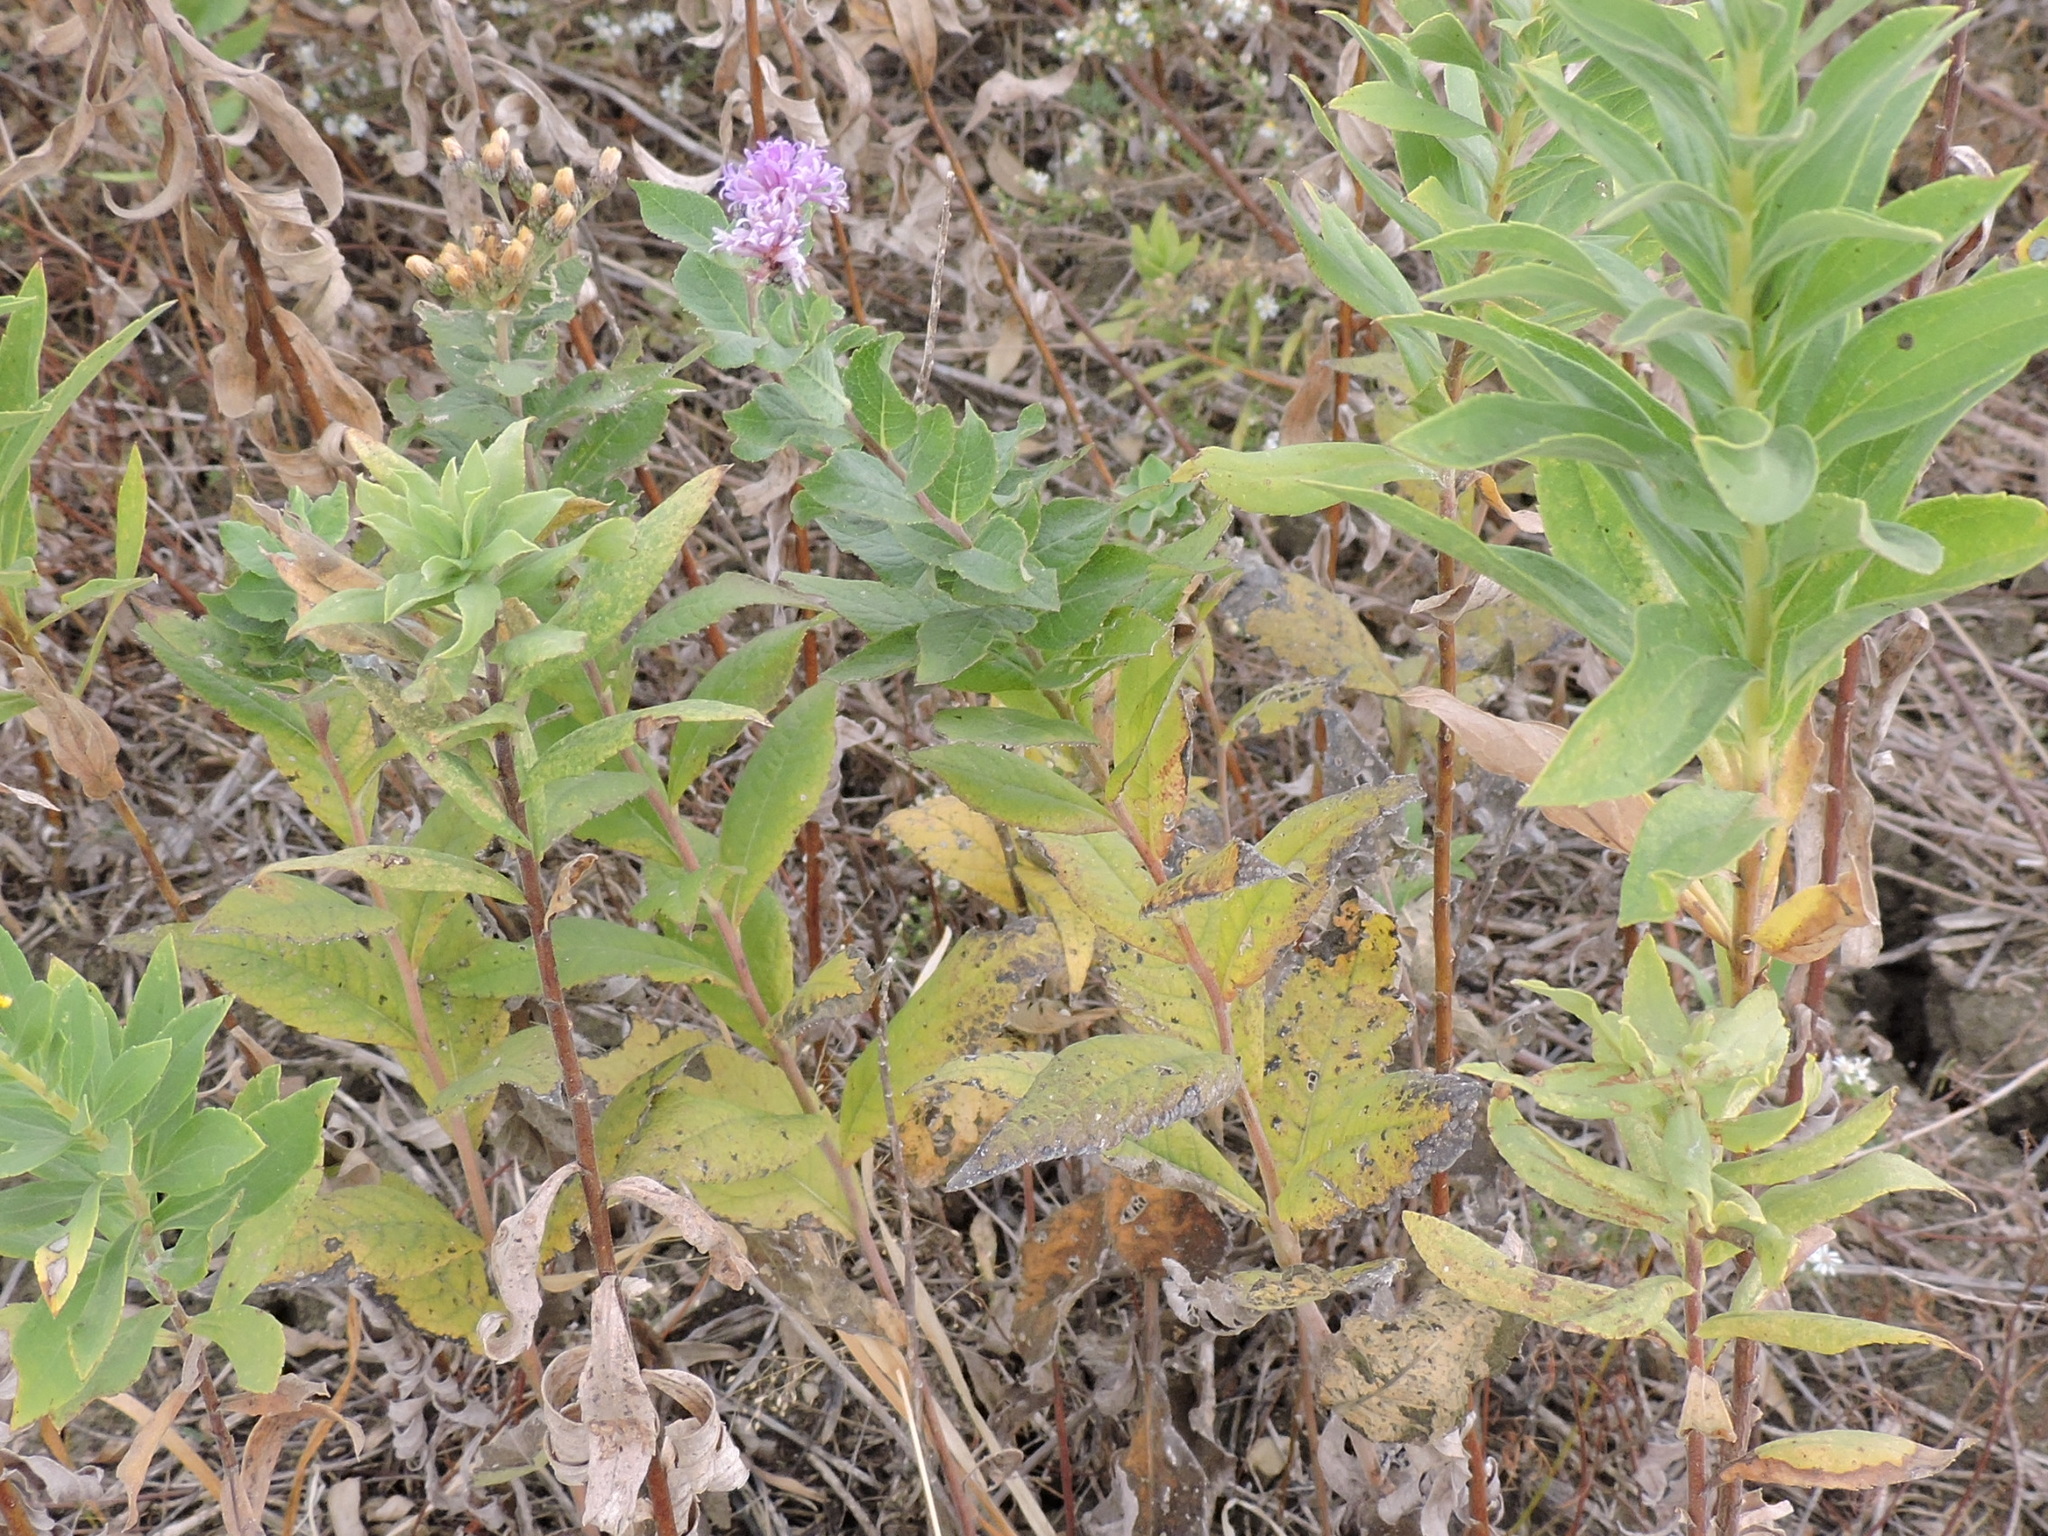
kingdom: Plantae
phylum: Tracheophyta
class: Magnoliopsida
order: Asterales
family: Asteraceae
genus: Vernonia
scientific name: Vernonia baldwinii
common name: Western ironweed
